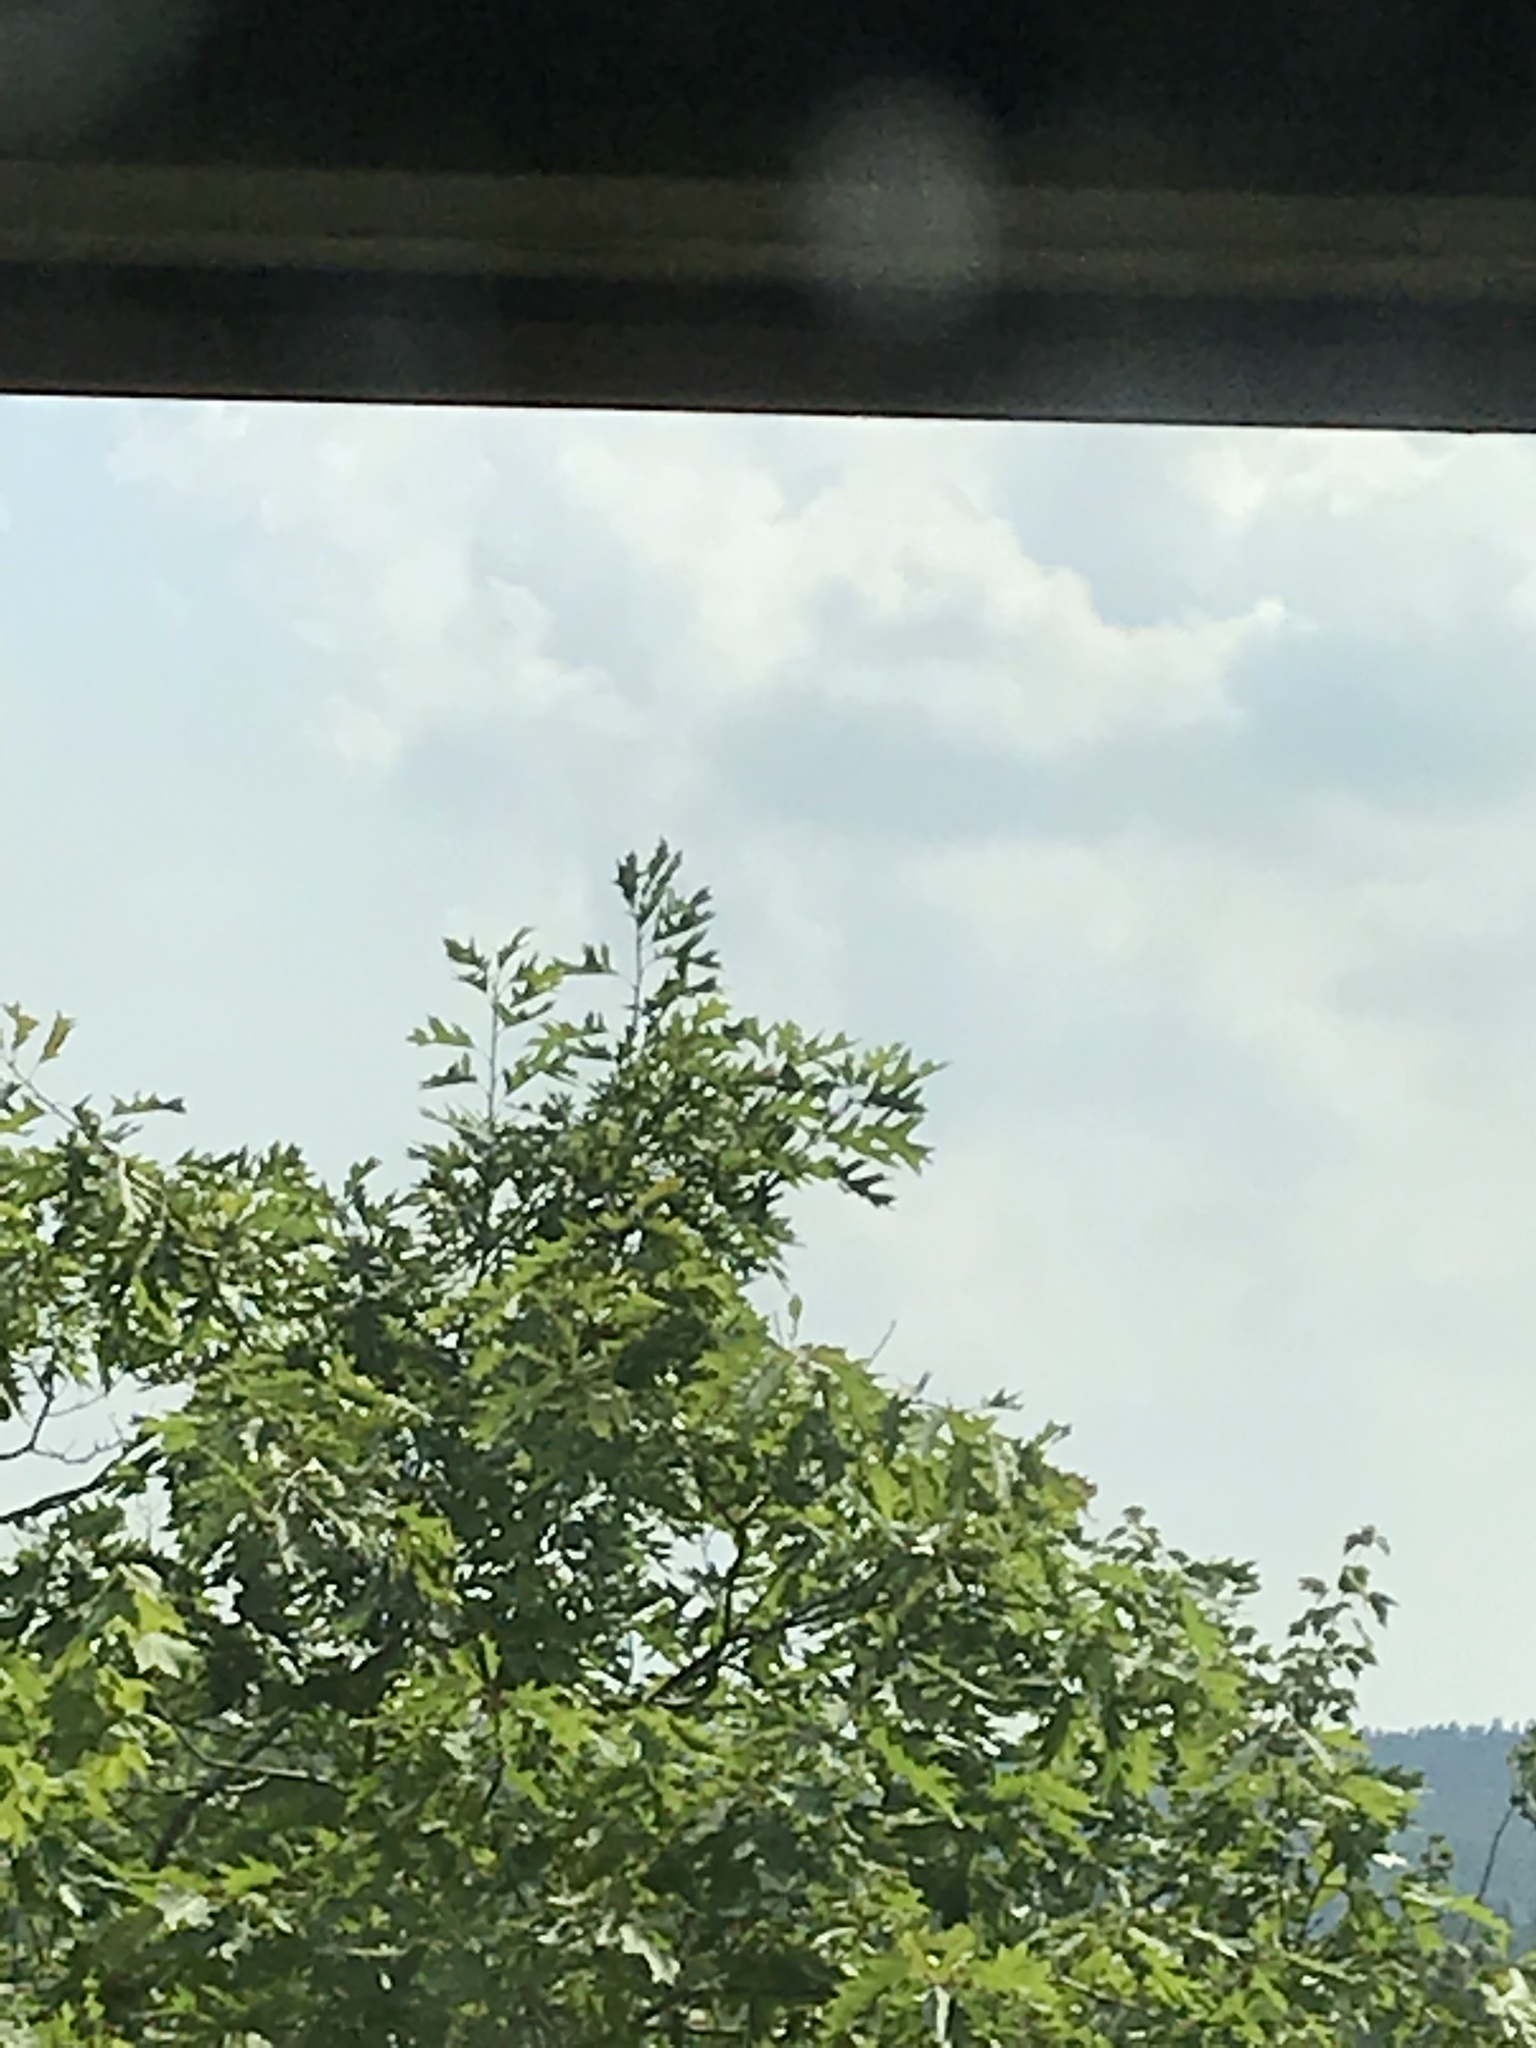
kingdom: Plantae
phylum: Tracheophyta
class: Magnoliopsida
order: Fagales
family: Fagaceae
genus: Quercus
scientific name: Quercus rubra
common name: Red oak
